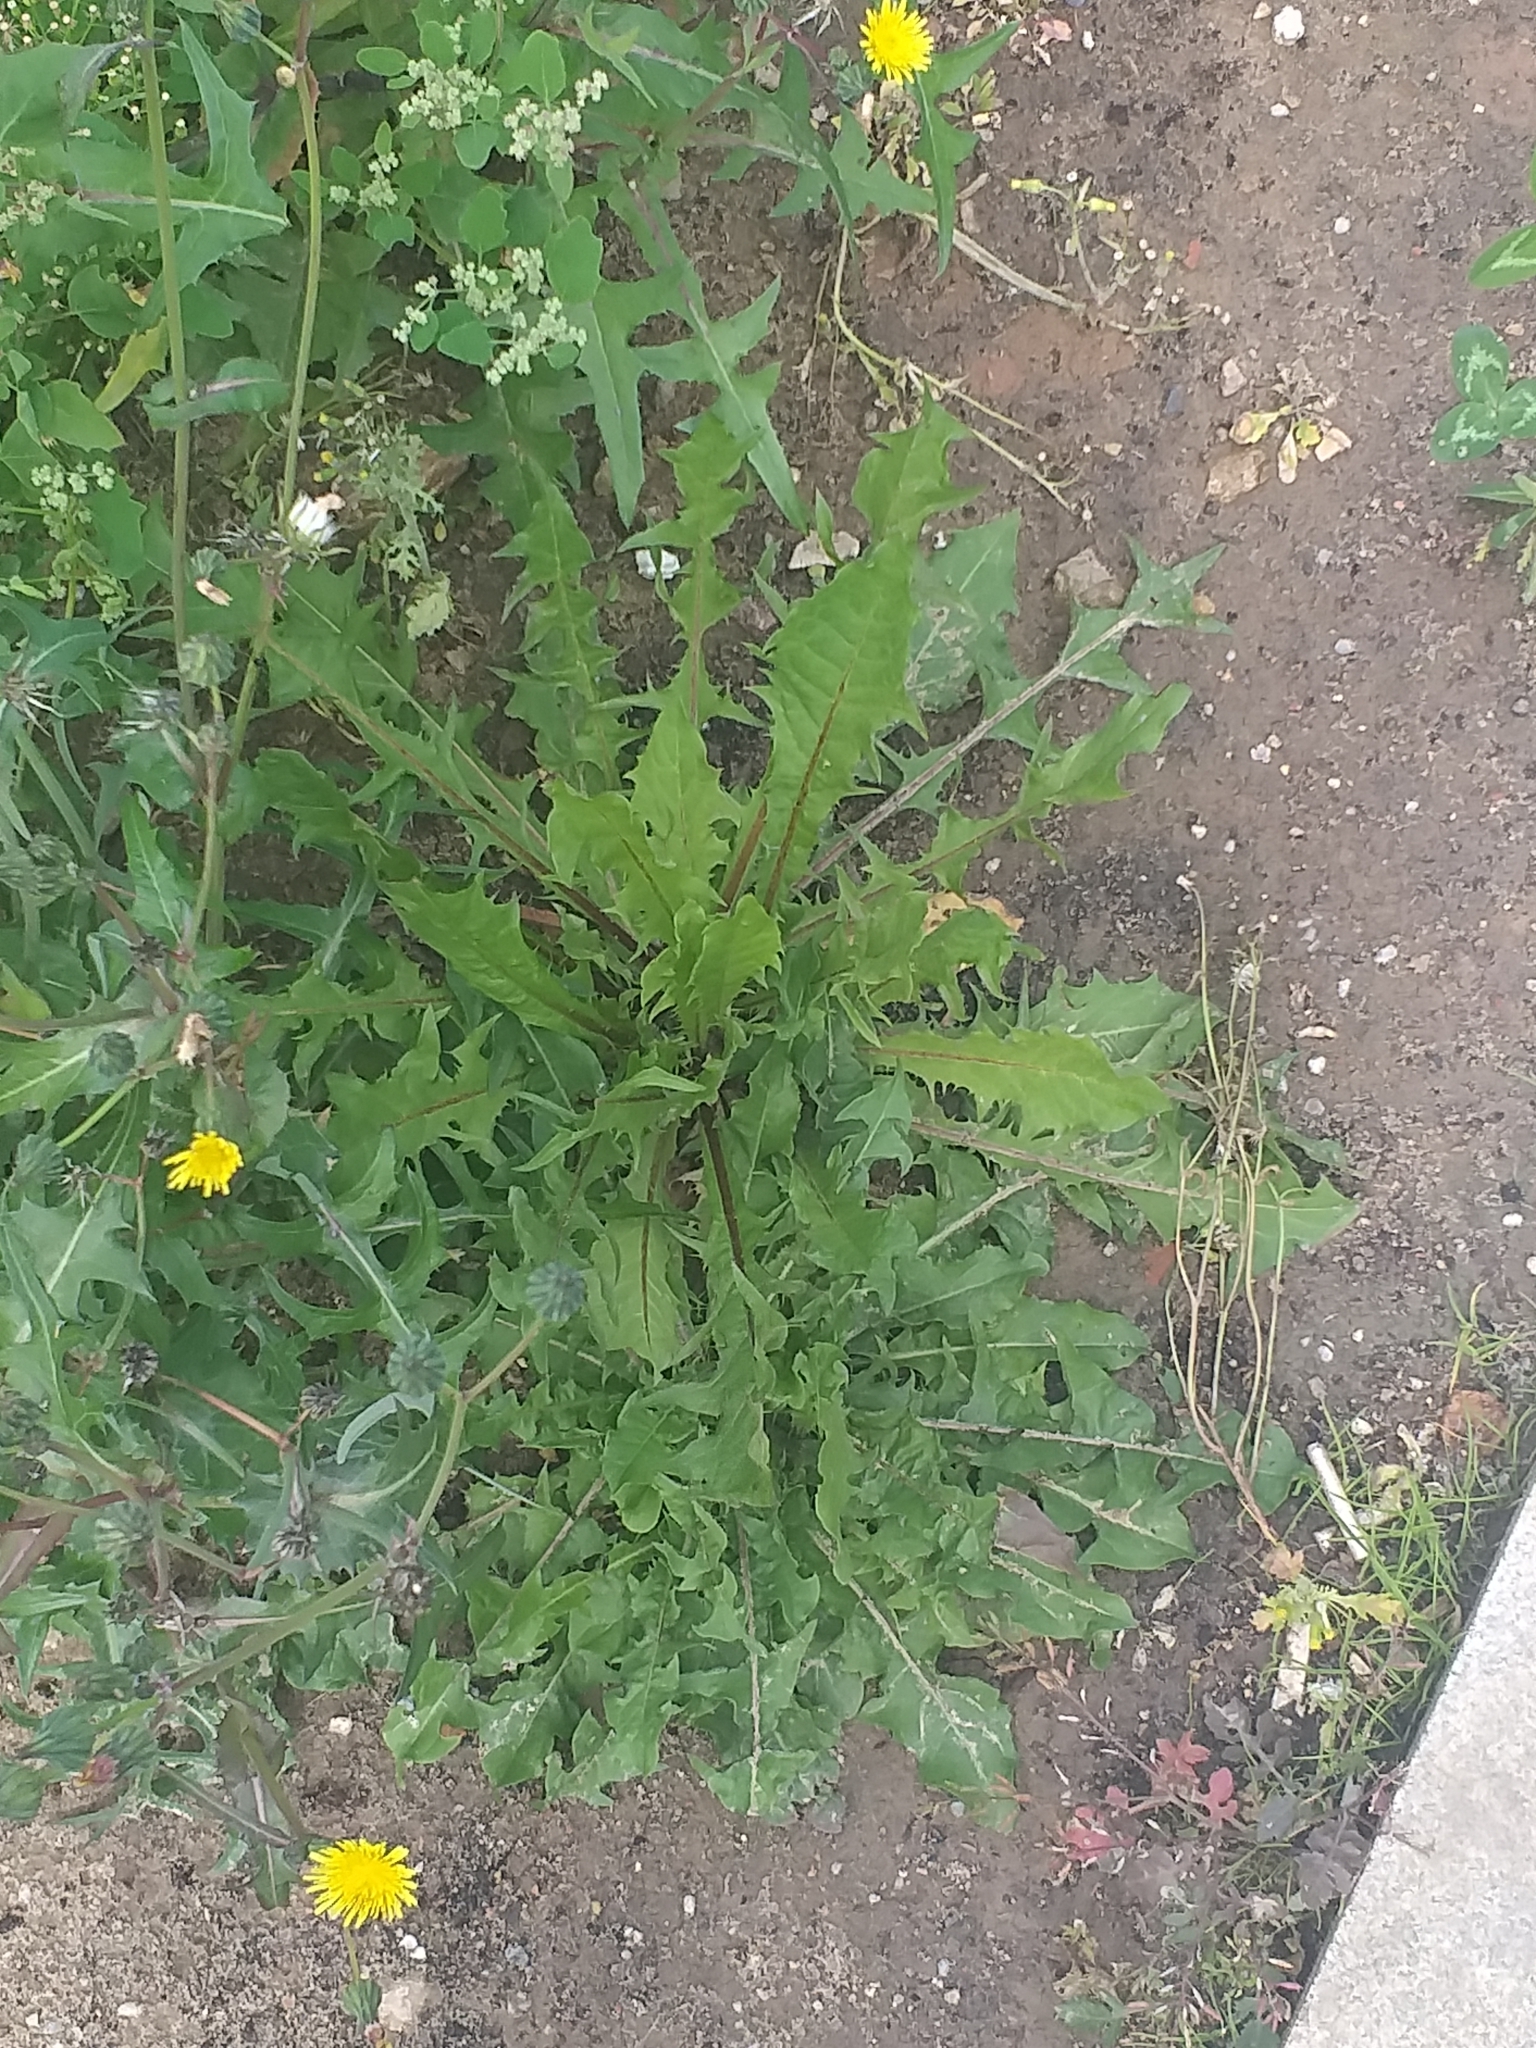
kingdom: Plantae
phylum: Tracheophyta
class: Magnoliopsida
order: Asterales
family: Asteraceae
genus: Taraxacum
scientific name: Taraxacum officinale
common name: Common dandelion
